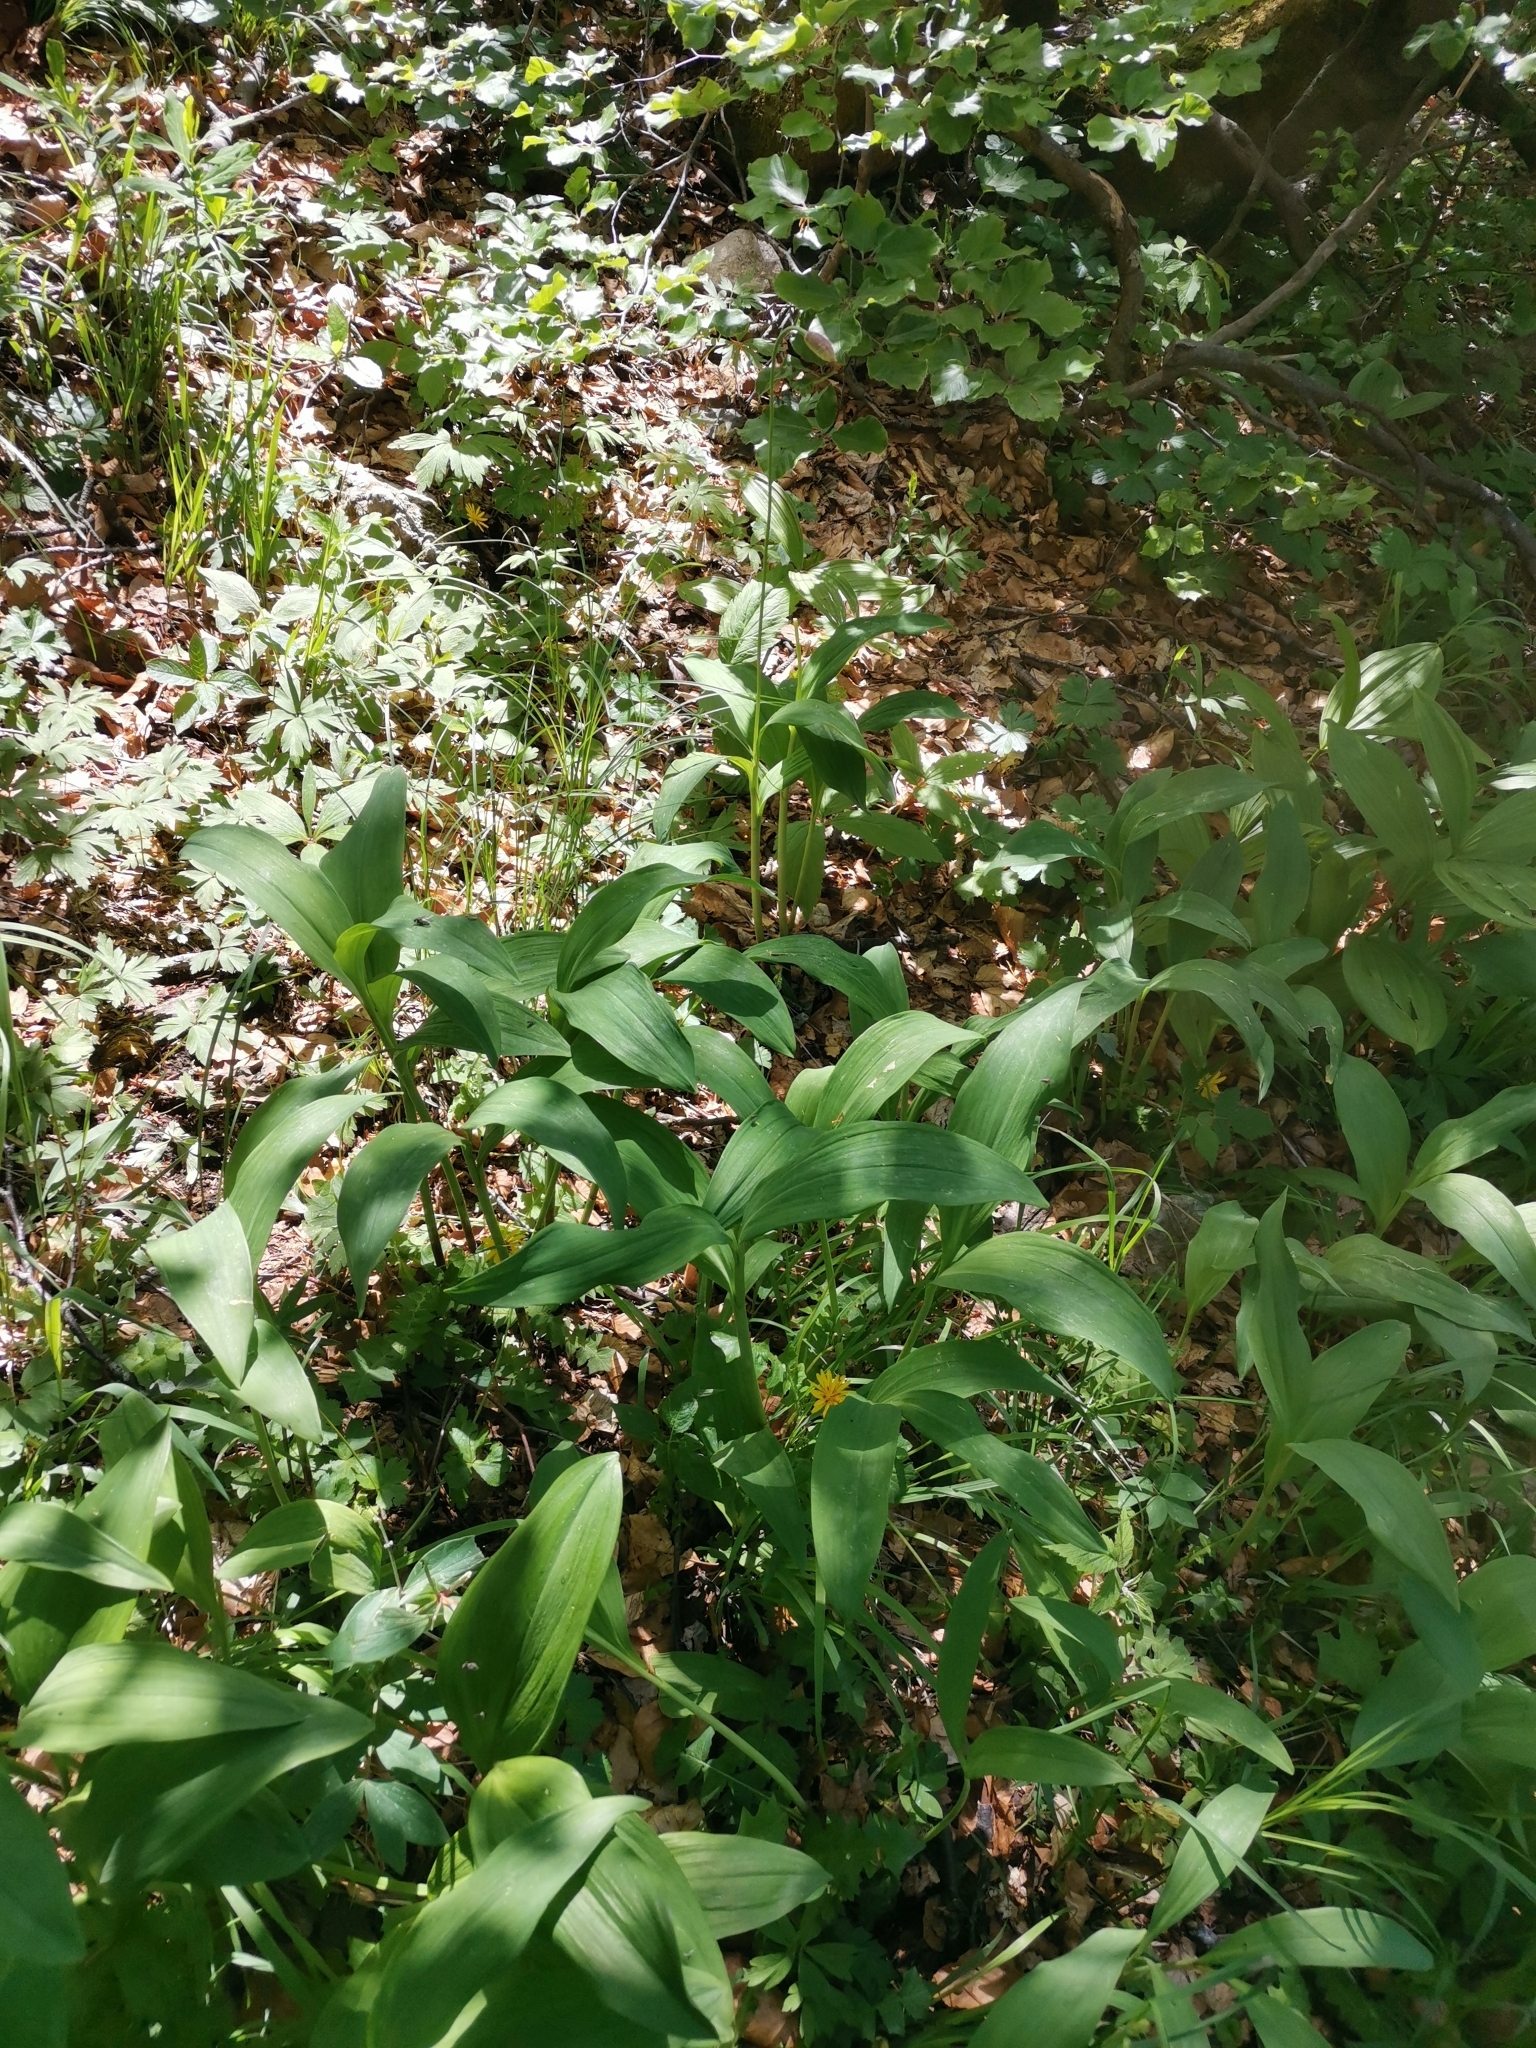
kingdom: Plantae
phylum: Tracheophyta
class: Liliopsida
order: Asparagales
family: Amaryllidaceae
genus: Allium
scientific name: Allium victorialis
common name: Alpine leek
